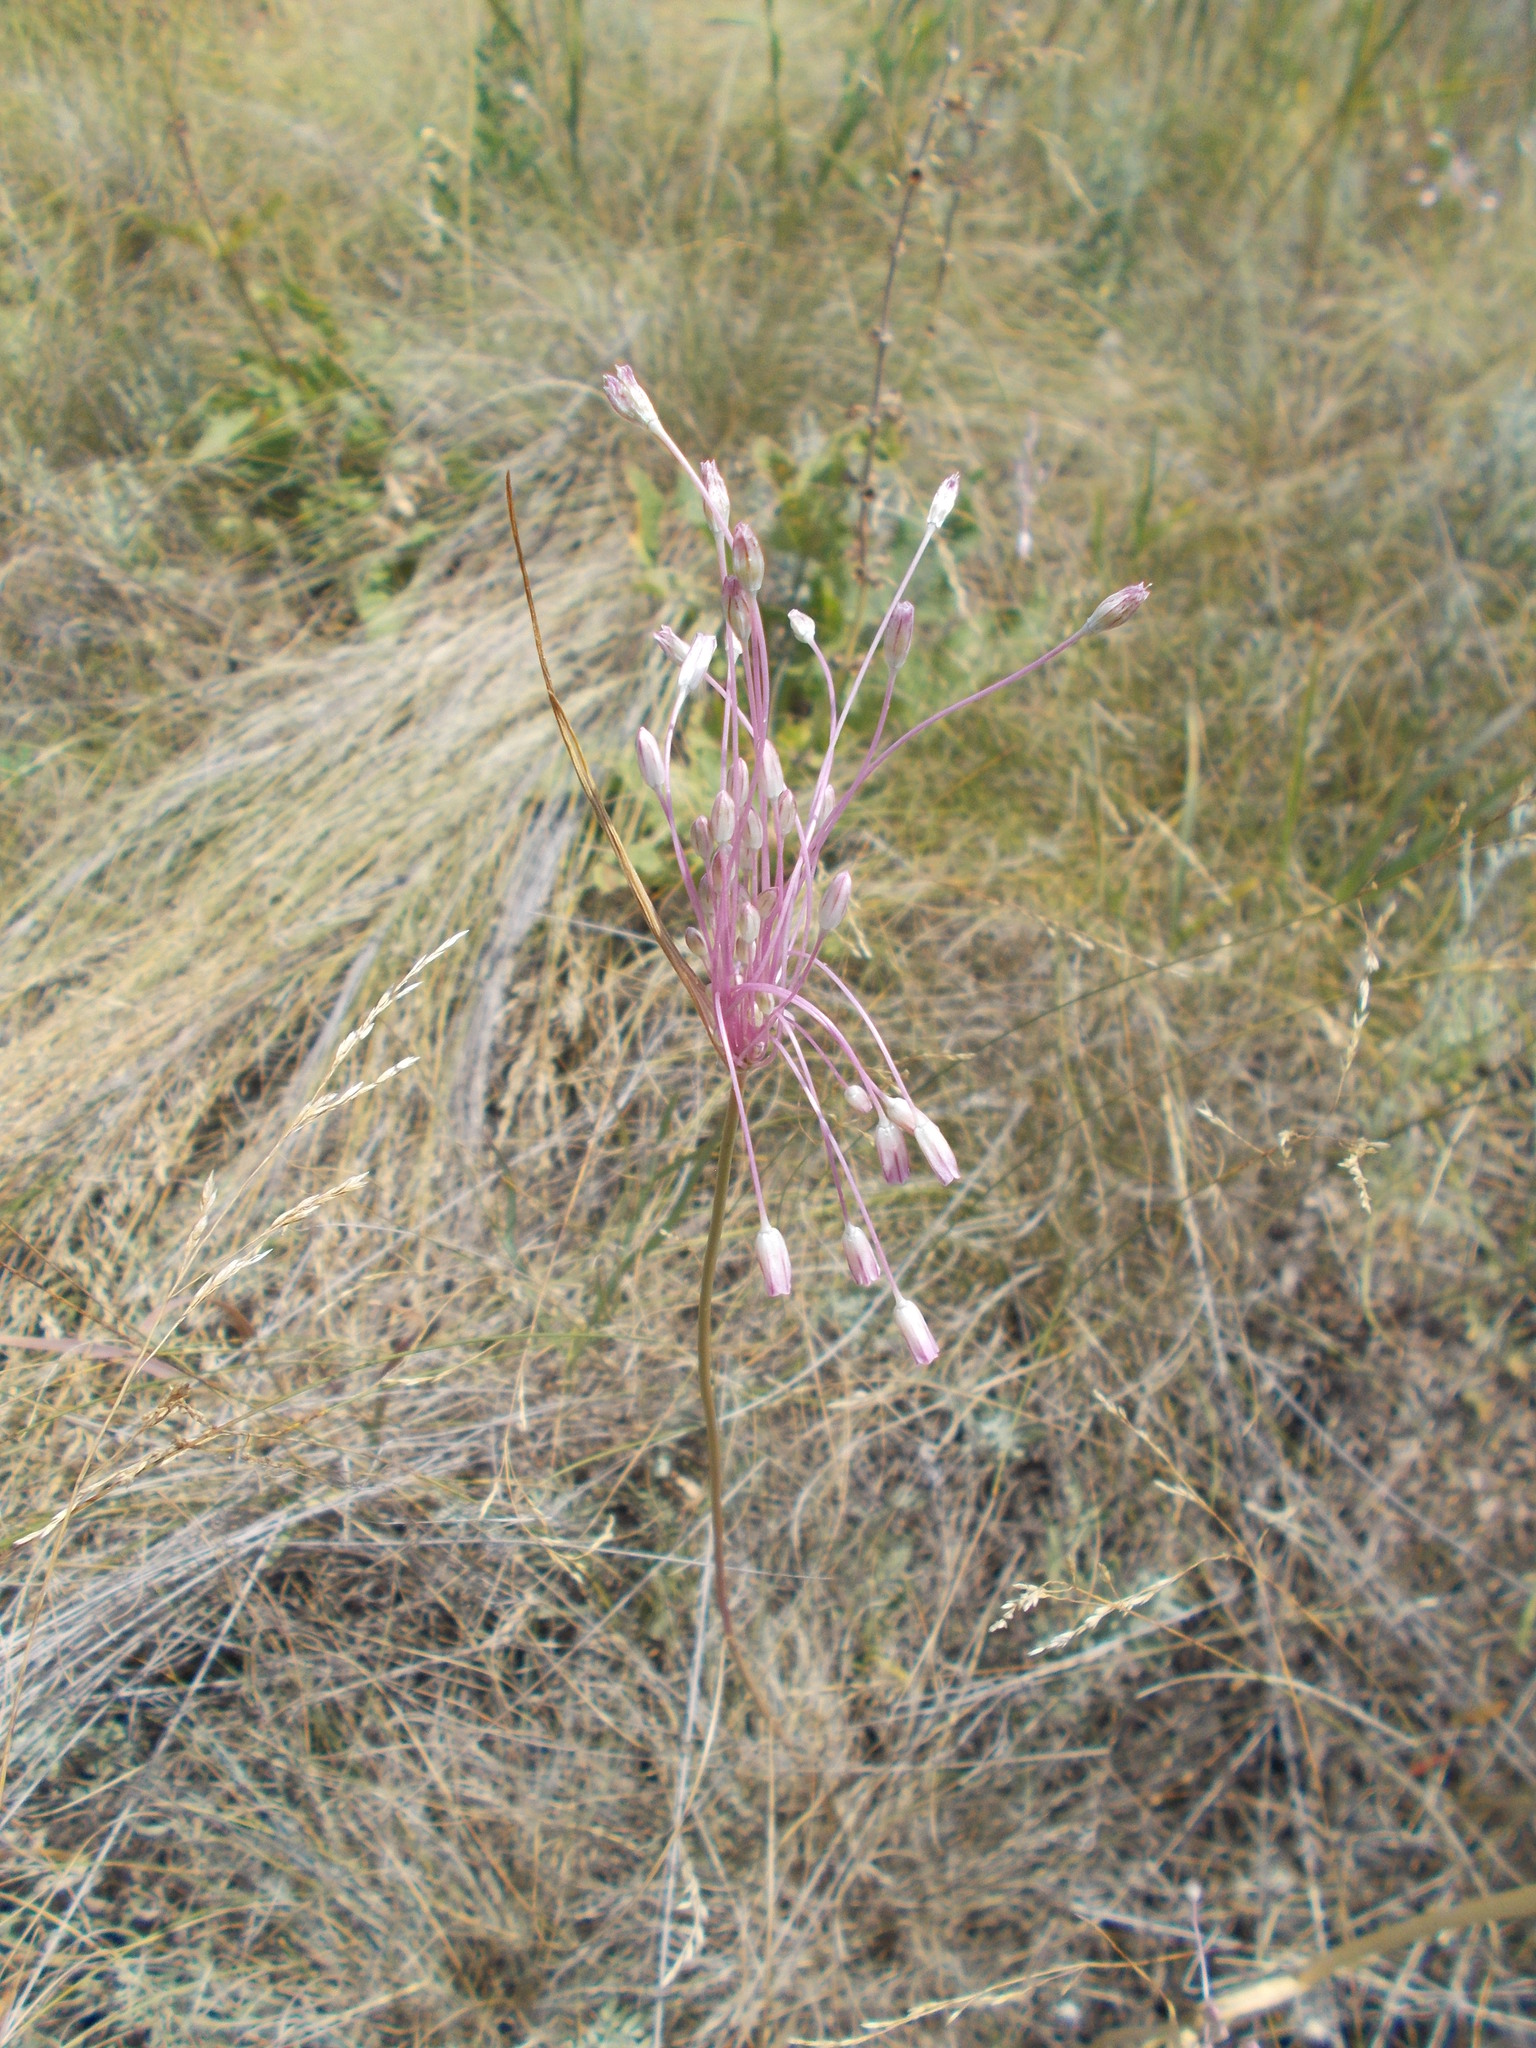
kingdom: Plantae
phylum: Tracheophyta
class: Liliopsida
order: Asparagales
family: Amaryllidaceae
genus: Allium
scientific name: Allium praescissum
